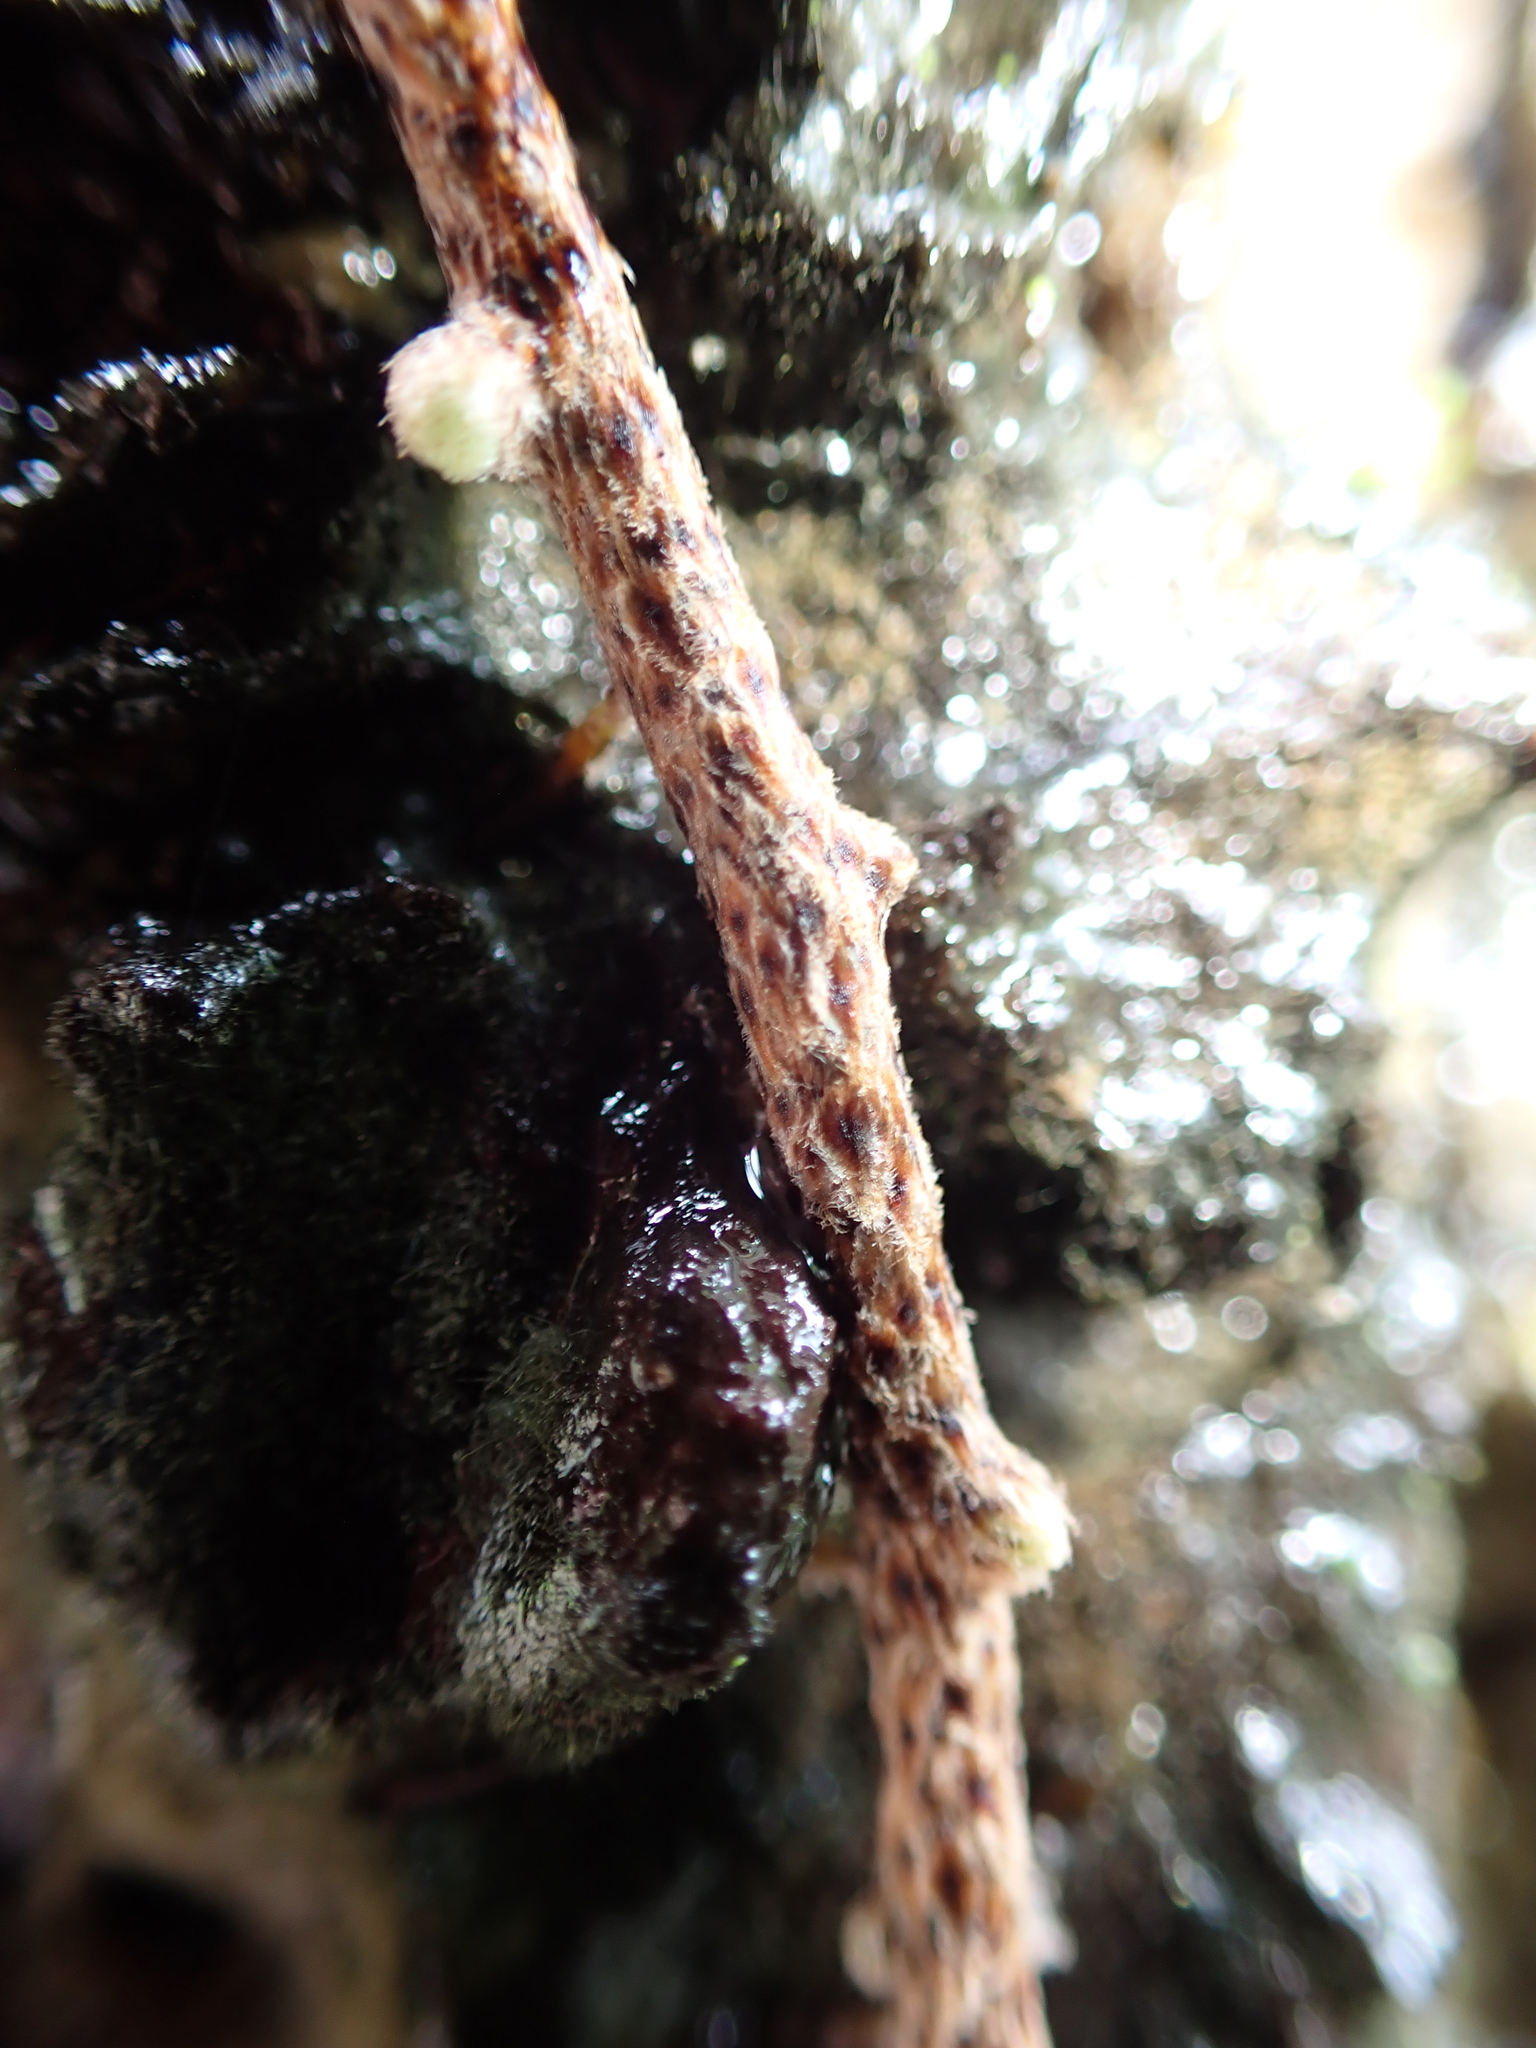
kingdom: Plantae
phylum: Tracheophyta
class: Polypodiopsida
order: Polypodiales
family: Polypodiaceae
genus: Pyrrosia
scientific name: Pyrrosia lanceolata
